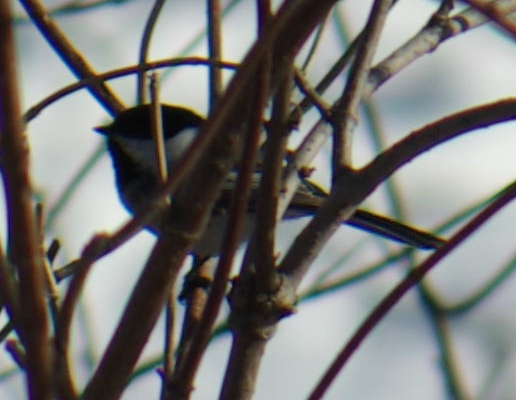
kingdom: Animalia
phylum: Chordata
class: Aves
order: Passeriformes
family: Paridae
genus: Poecile
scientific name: Poecile atricapillus
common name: Black-capped chickadee
